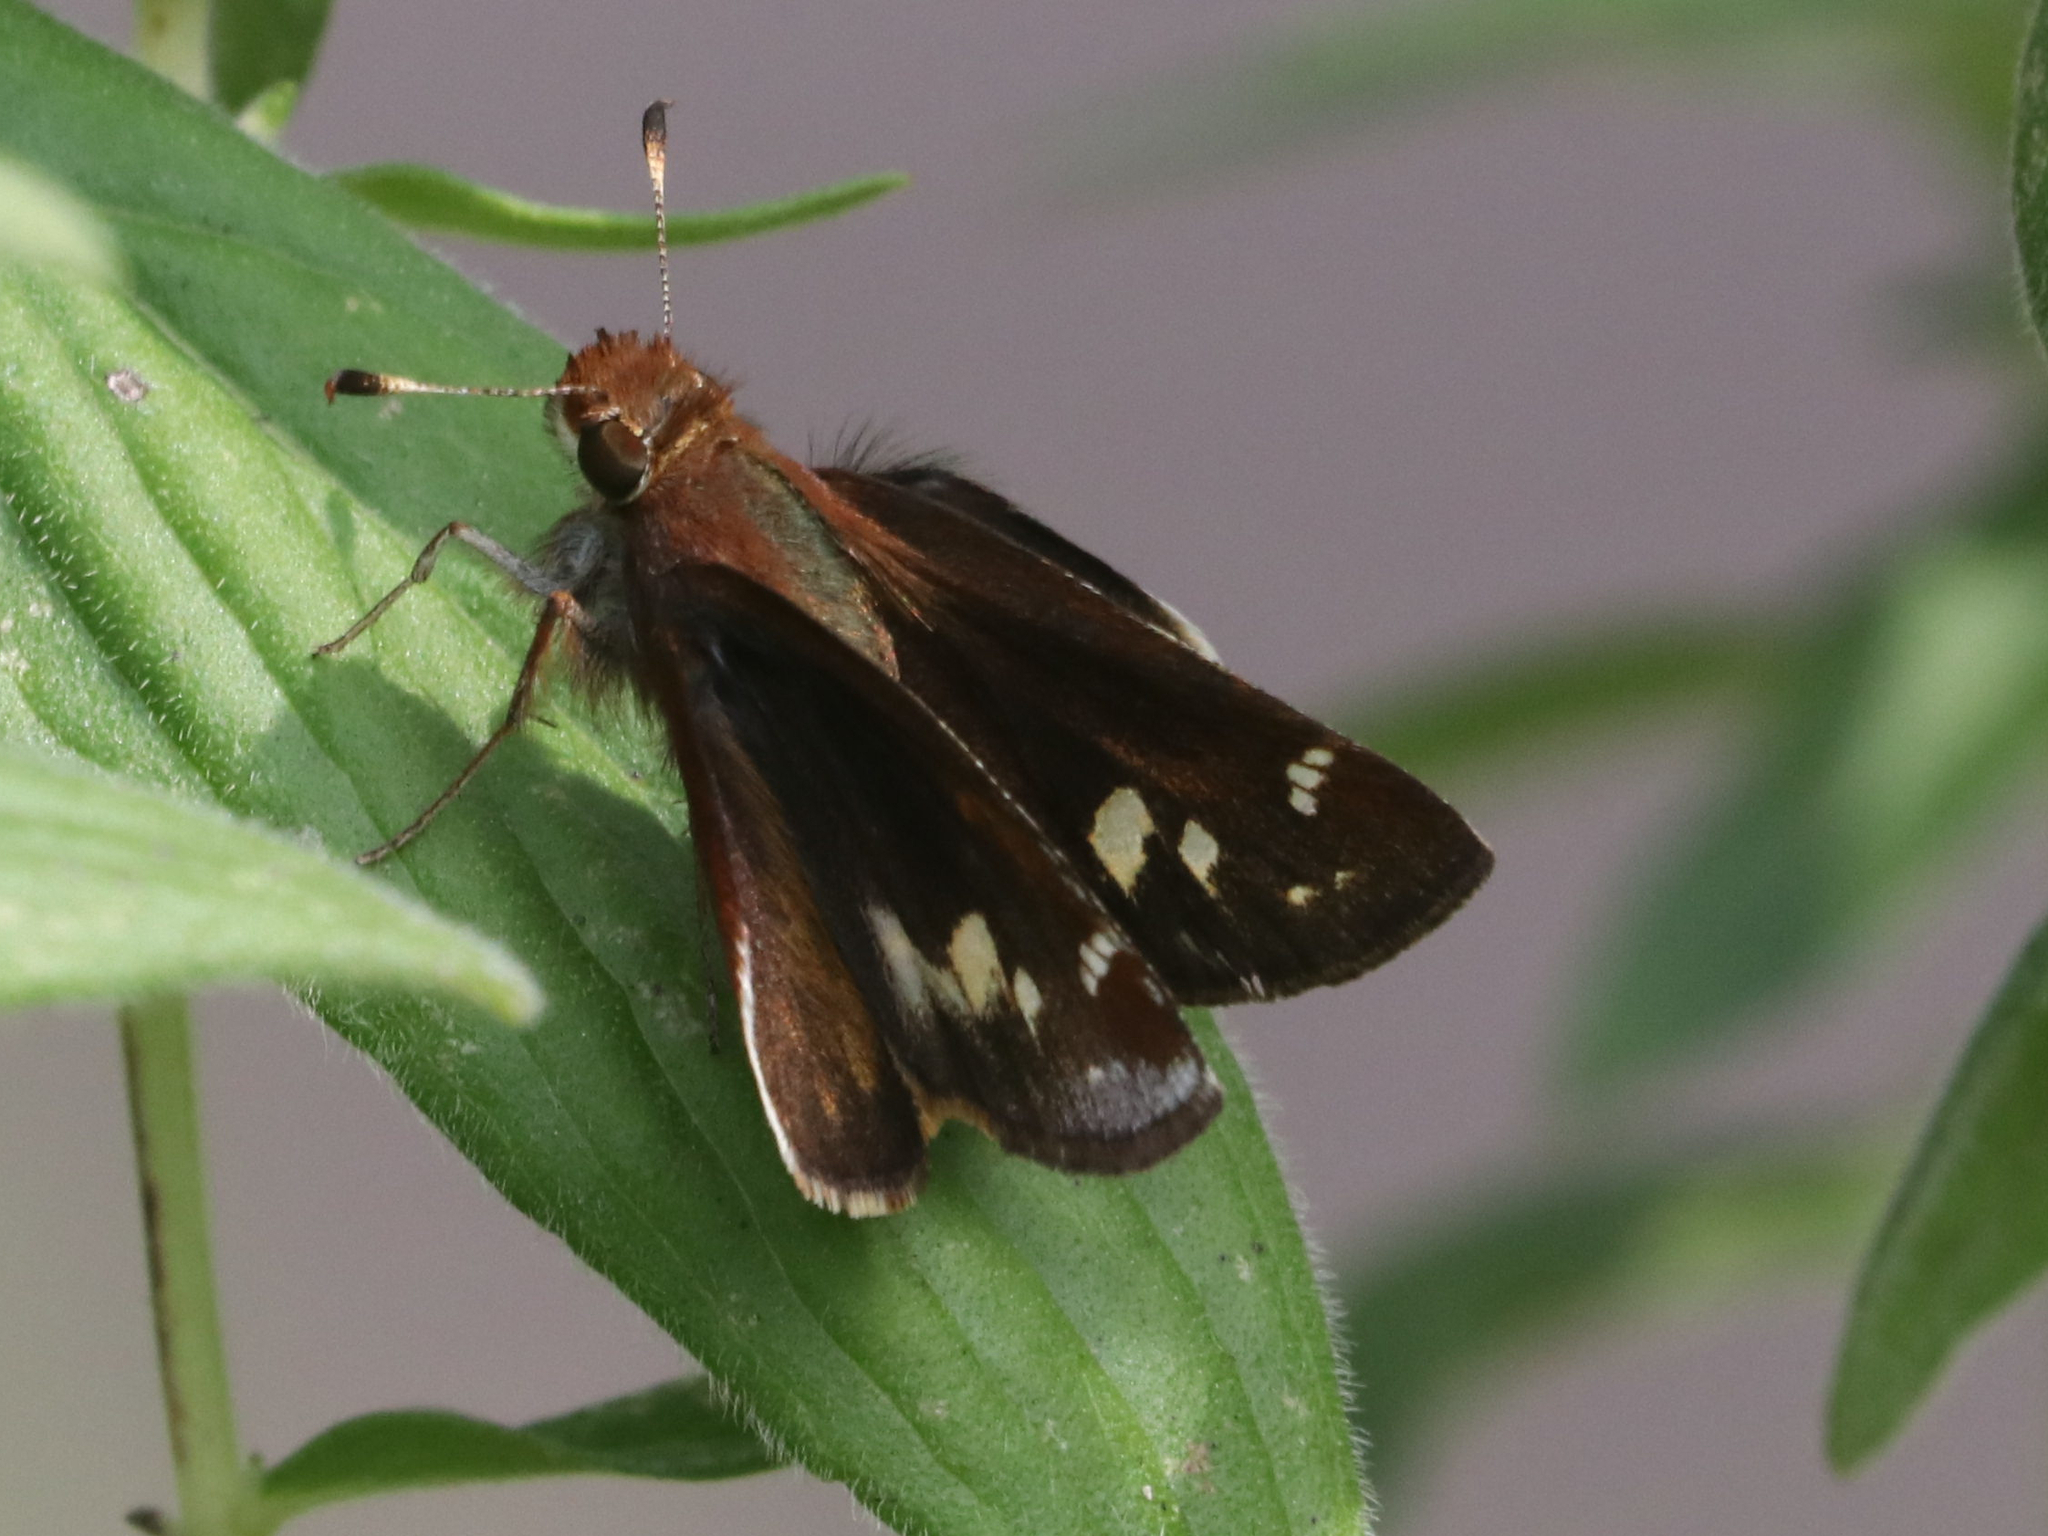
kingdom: Animalia
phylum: Arthropoda
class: Insecta
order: Lepidoptera
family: Hesperiidae
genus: Lon
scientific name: Lon zabulon
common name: Zabulon skipper
